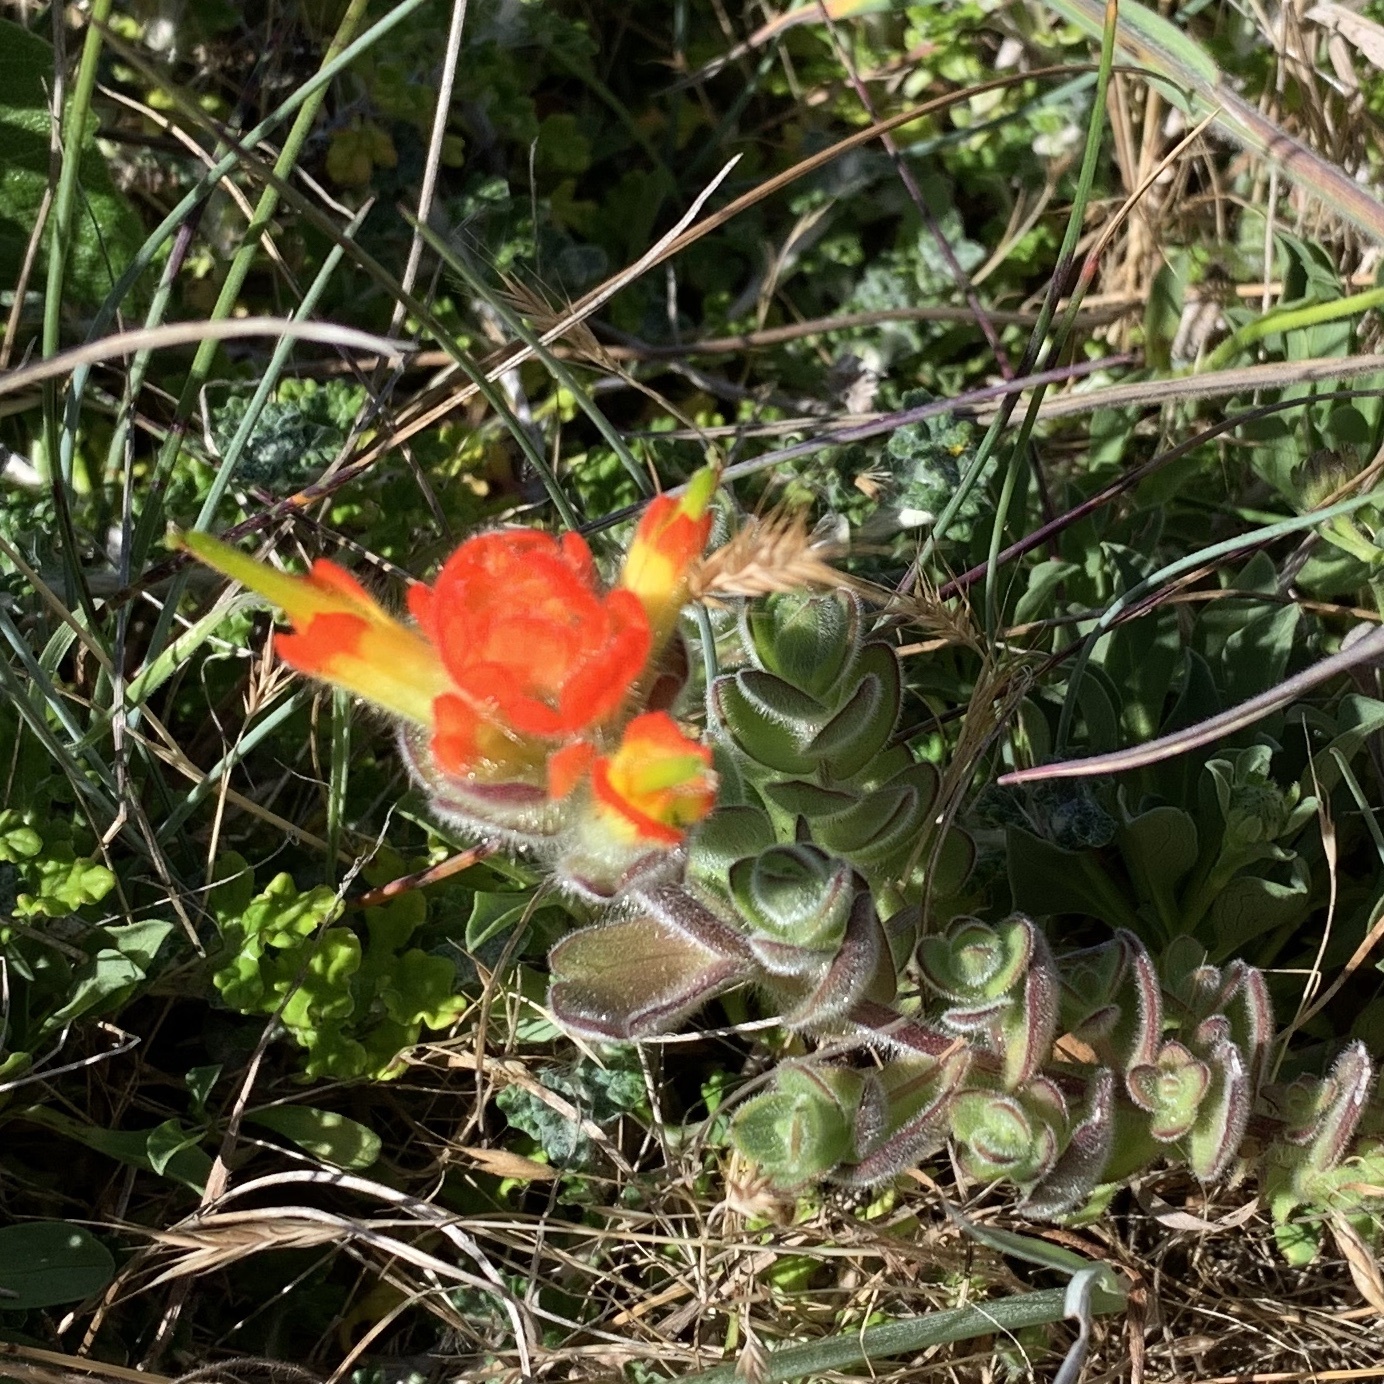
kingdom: Plantae
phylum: Tracheophyta
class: Magnoliopsida
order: Lamiales
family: Orobanchaceae
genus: Castilleja
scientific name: Castilleja mendocinensis
